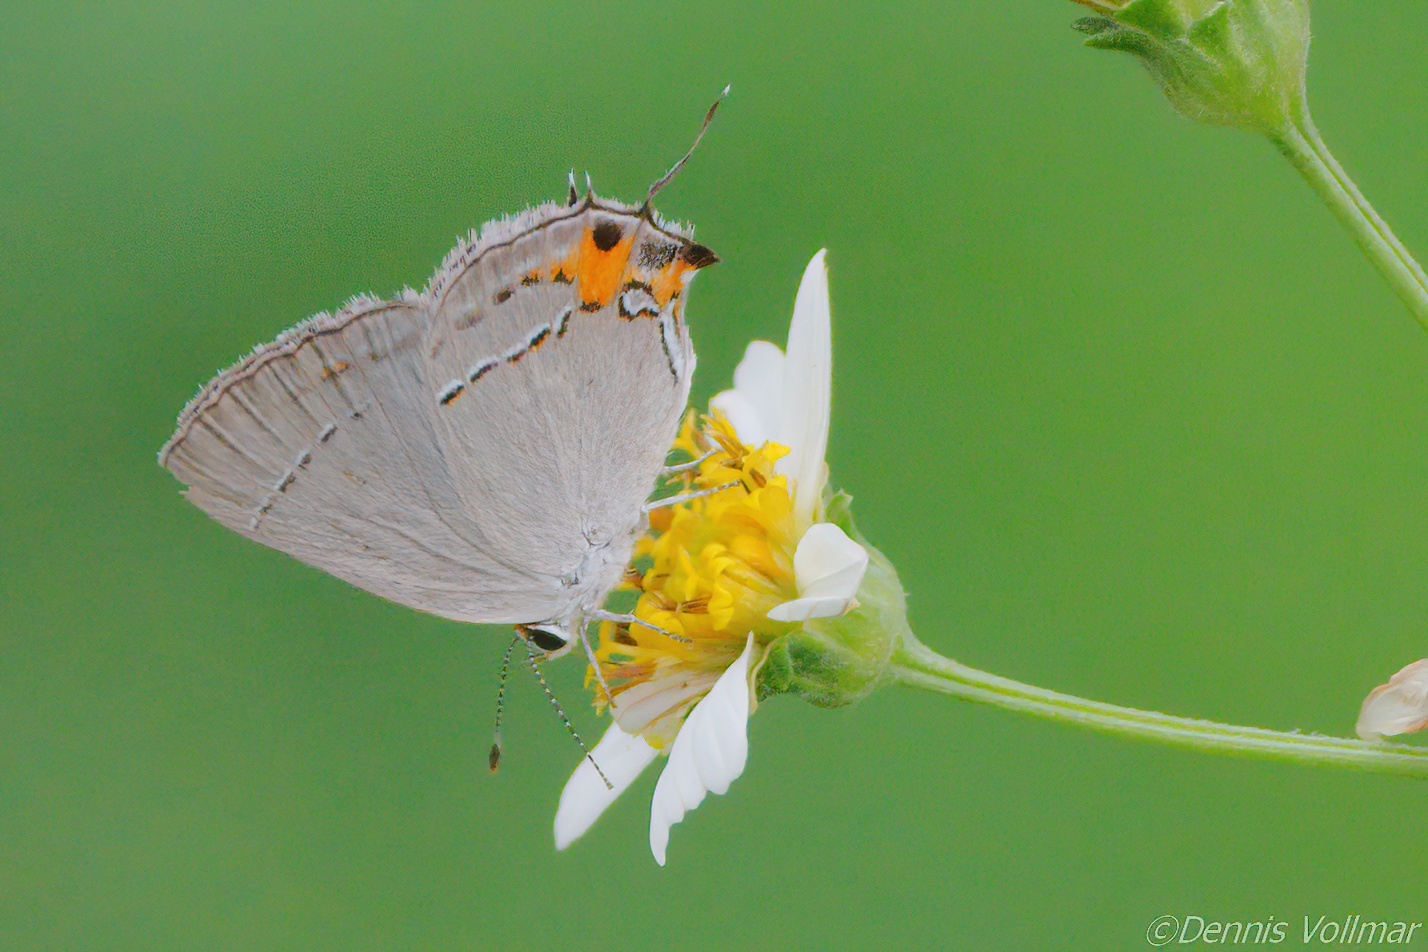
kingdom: Animalia
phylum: Arthropoda
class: Insecta
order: Lepidoptera
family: Lycaenidae
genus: Strymon
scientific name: Strymon melinus
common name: Gray hairstreak
